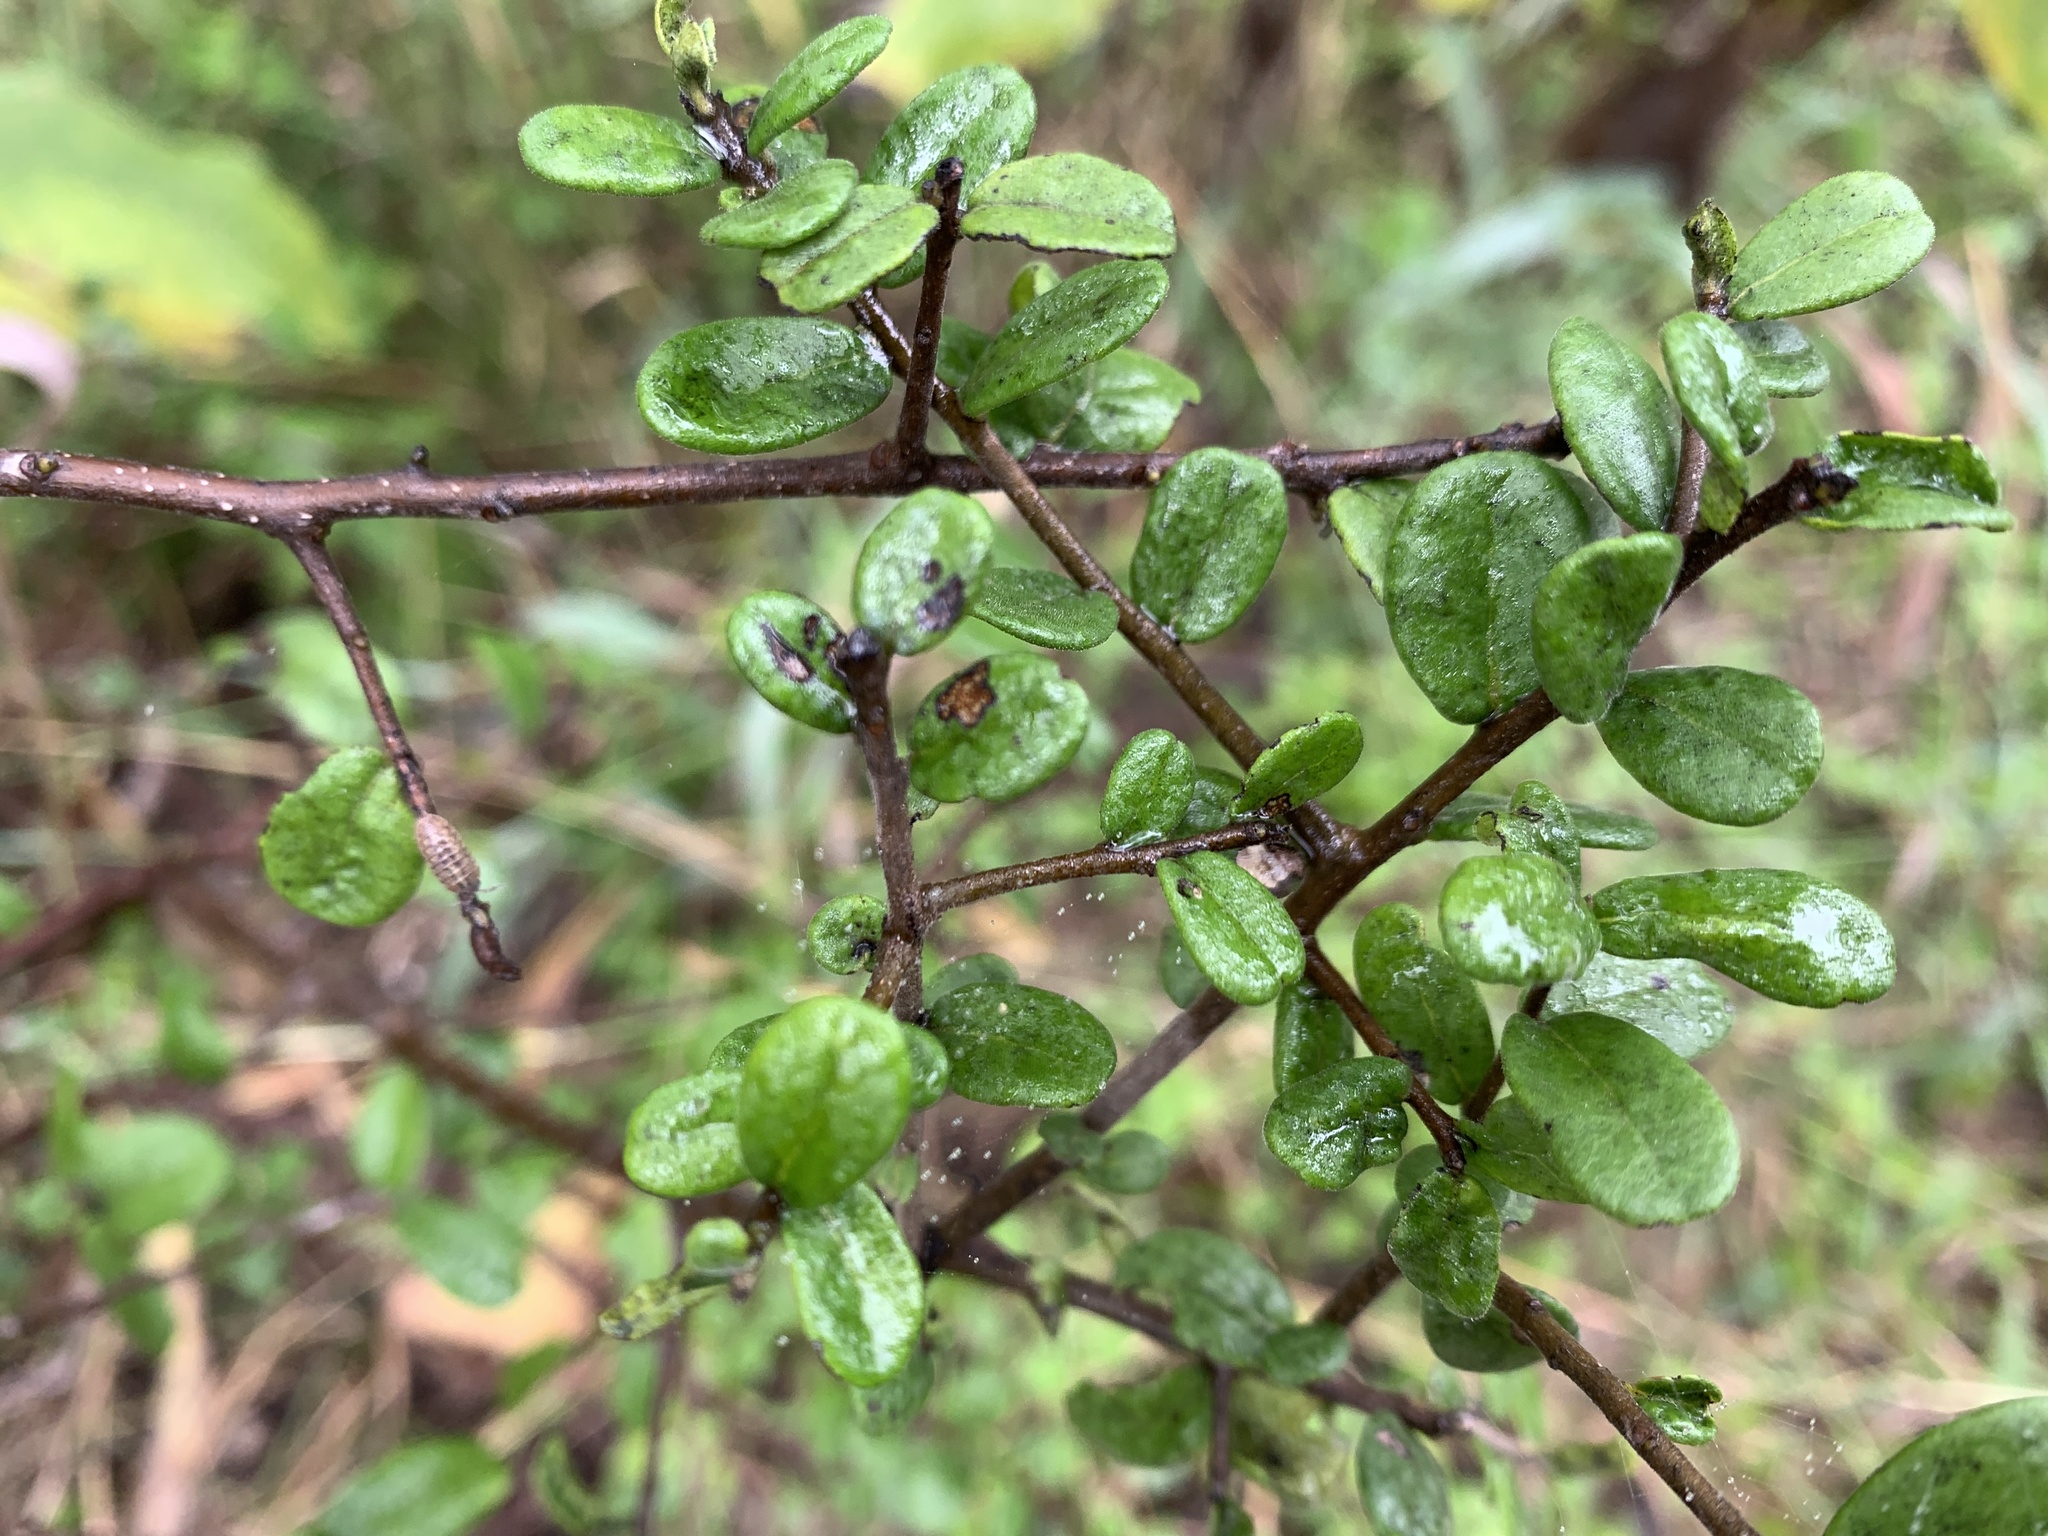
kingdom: Plantae
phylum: Tracheophyta
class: Magnoliopsida
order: Ericales
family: Ebenaceae
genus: Diospyros
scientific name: Diospyros texana
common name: Texas persimmon
